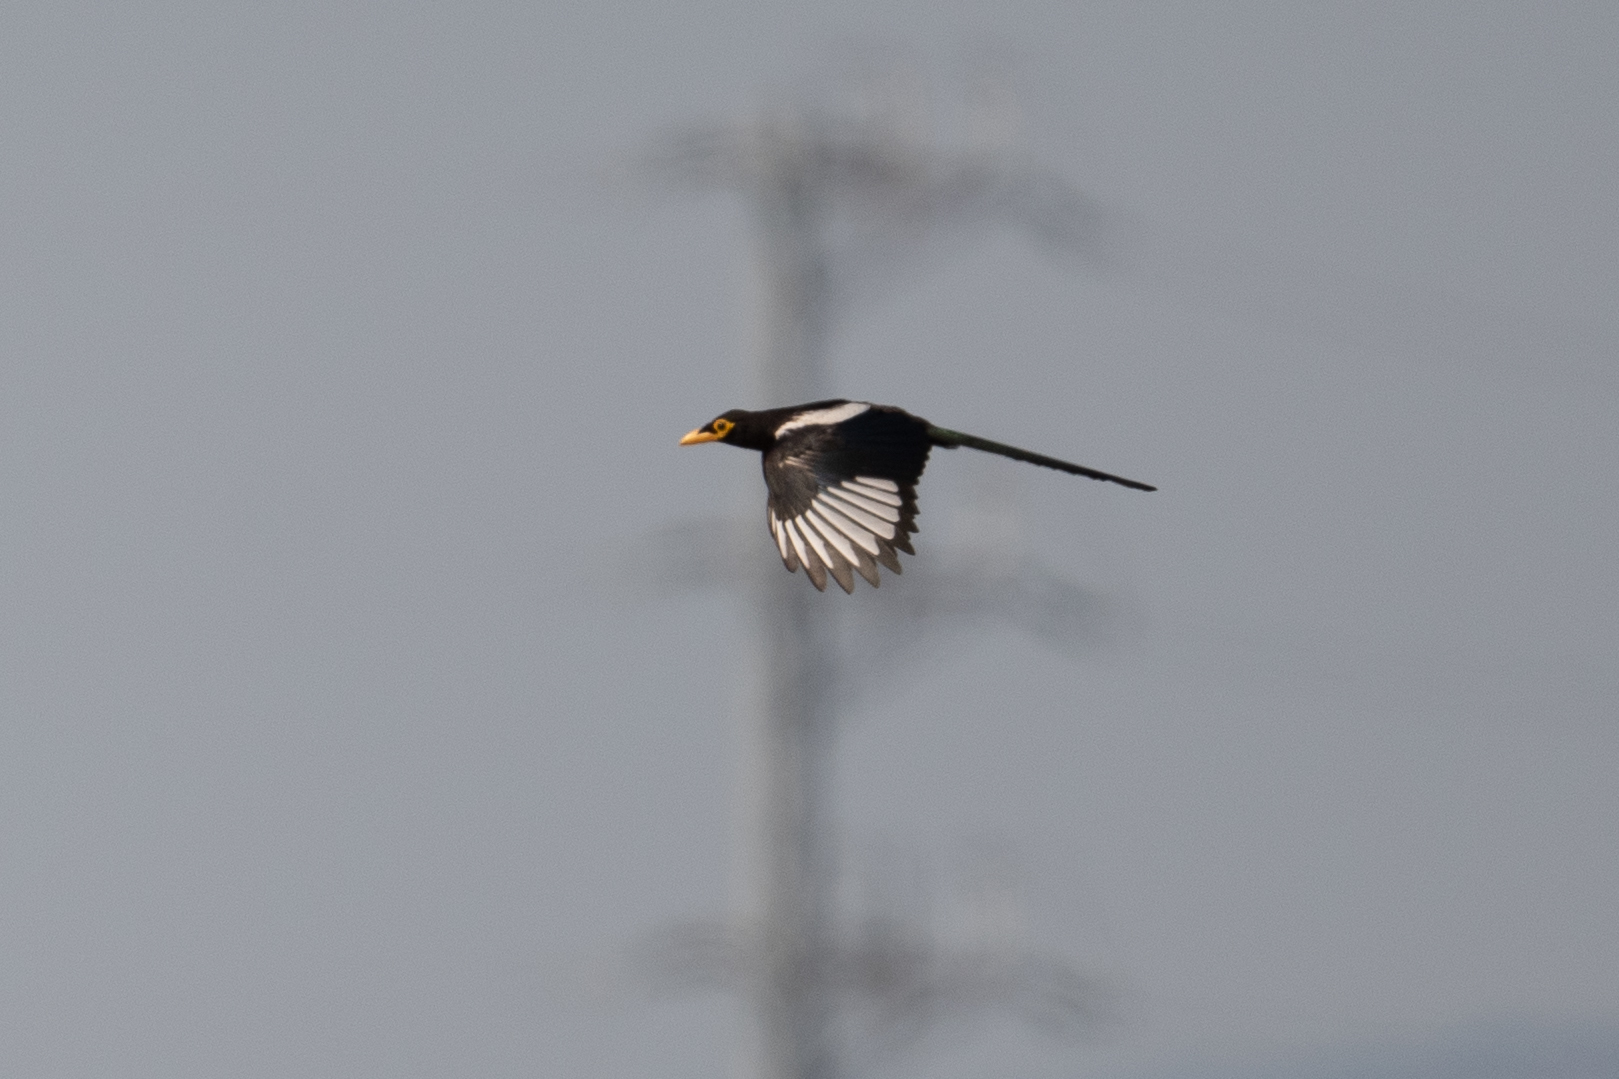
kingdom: Animalia
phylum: Chordata
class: Aves
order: Passeriformes
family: Corvidae
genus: Pica
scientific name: Pica nuttalli
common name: Yellow-billed magpie
